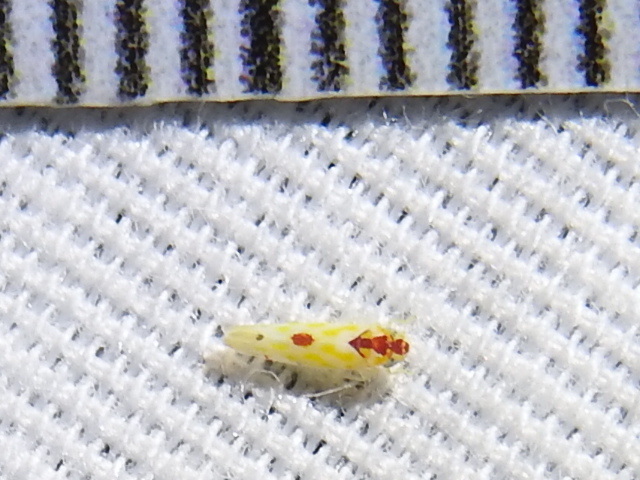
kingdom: Animalia
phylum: Arthropoda
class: Insecta
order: Hemiptera
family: Cicadellidae
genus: Eratoneura
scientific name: Eratoneura accola
